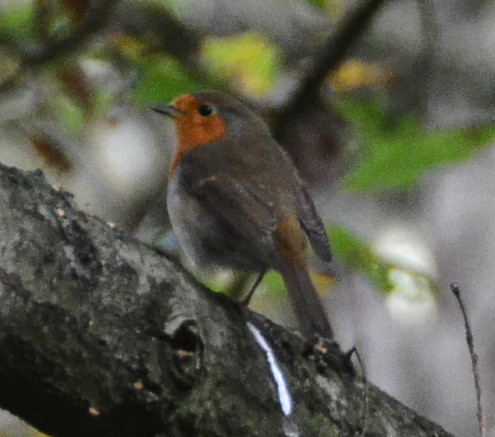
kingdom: Animalia
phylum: Chordata
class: Aves
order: Passeriformes
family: Muscicapidae
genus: Erithacus
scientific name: Erithacus rubecula
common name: European robin
